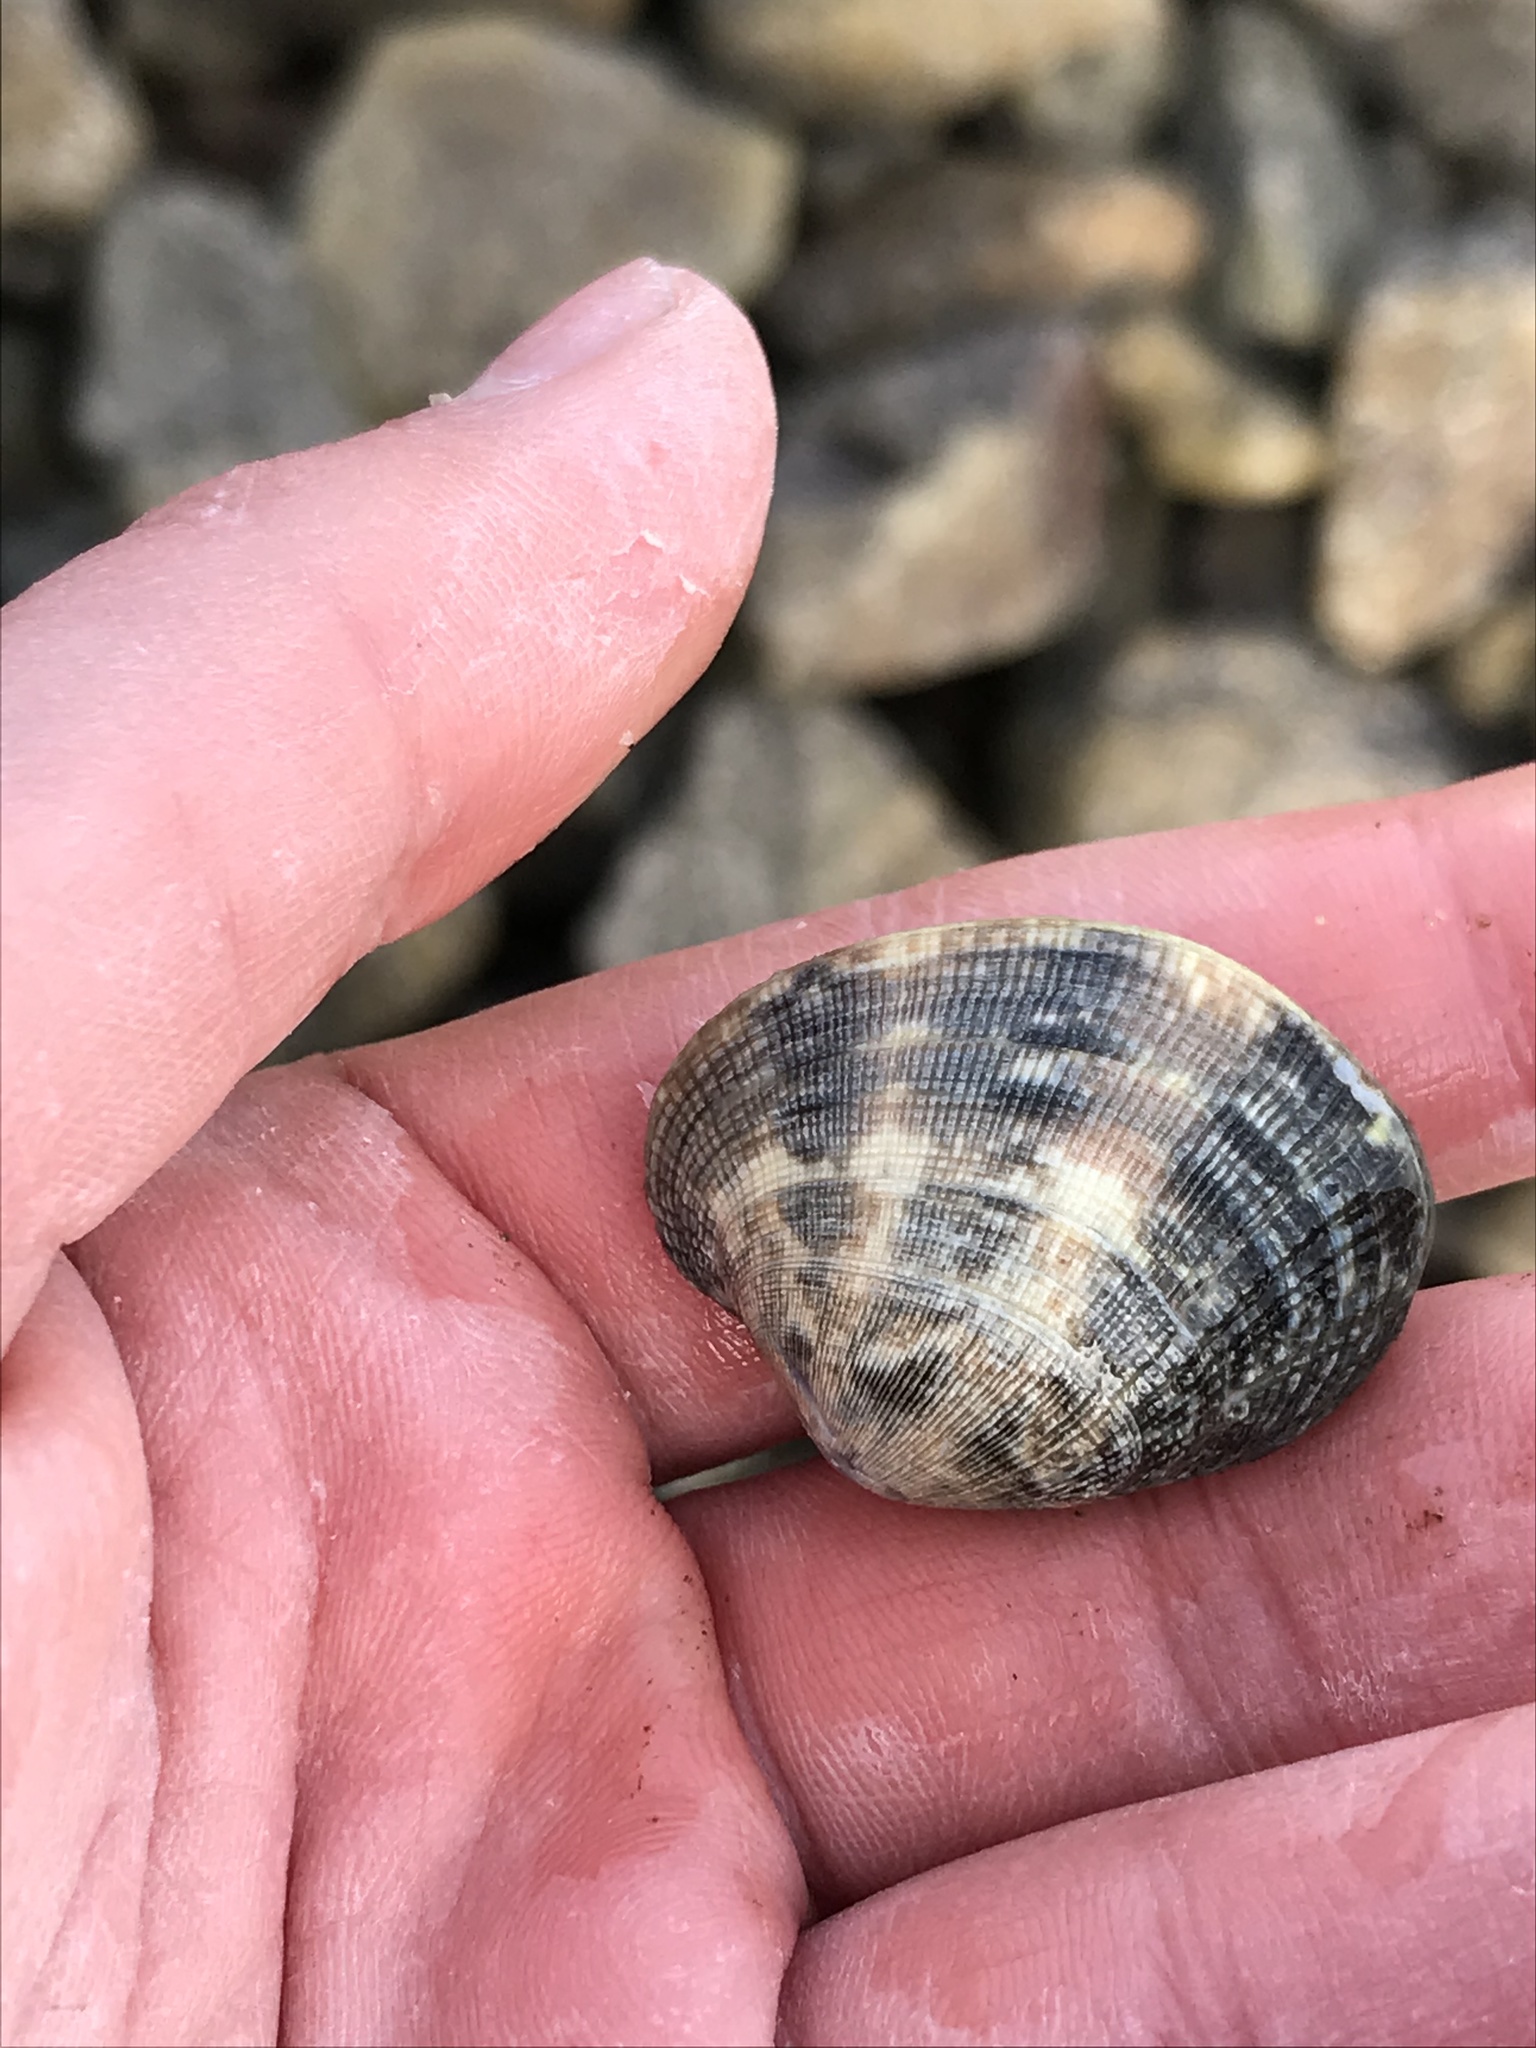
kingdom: Animalia
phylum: Mollusca
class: Bivalvia
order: Venerida
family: Veneridae
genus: Ruditapes
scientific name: Ruditapes philippinarum
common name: Manila clam
